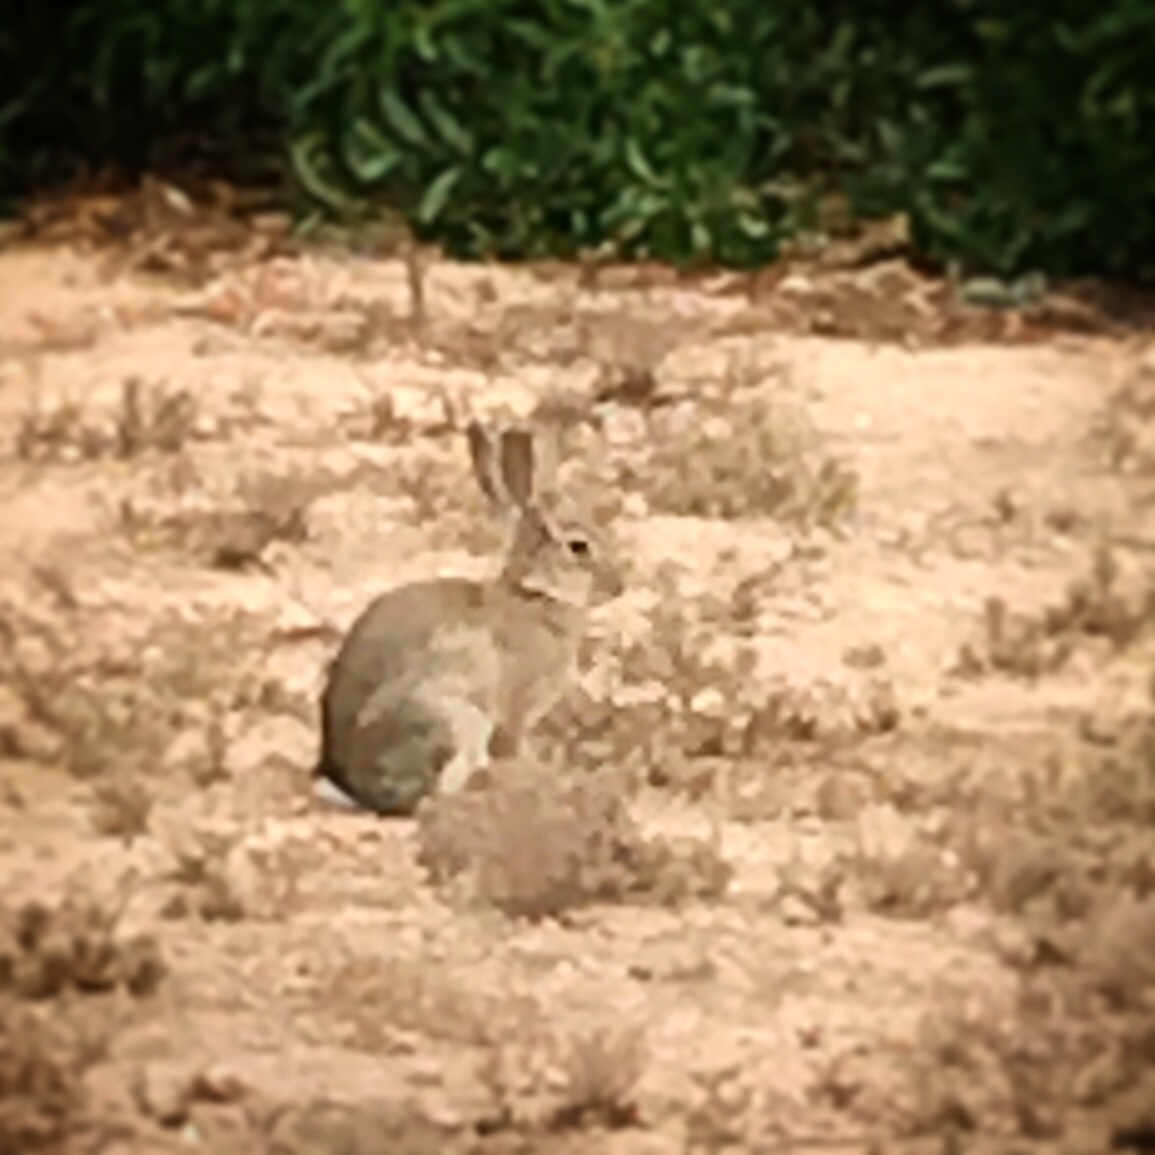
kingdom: Animalia
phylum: Chordata
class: Mammalia
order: Lagomorpha
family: Leporidae
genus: Oryctolagus
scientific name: Oryctolagus cuniculus
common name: European rabbit
